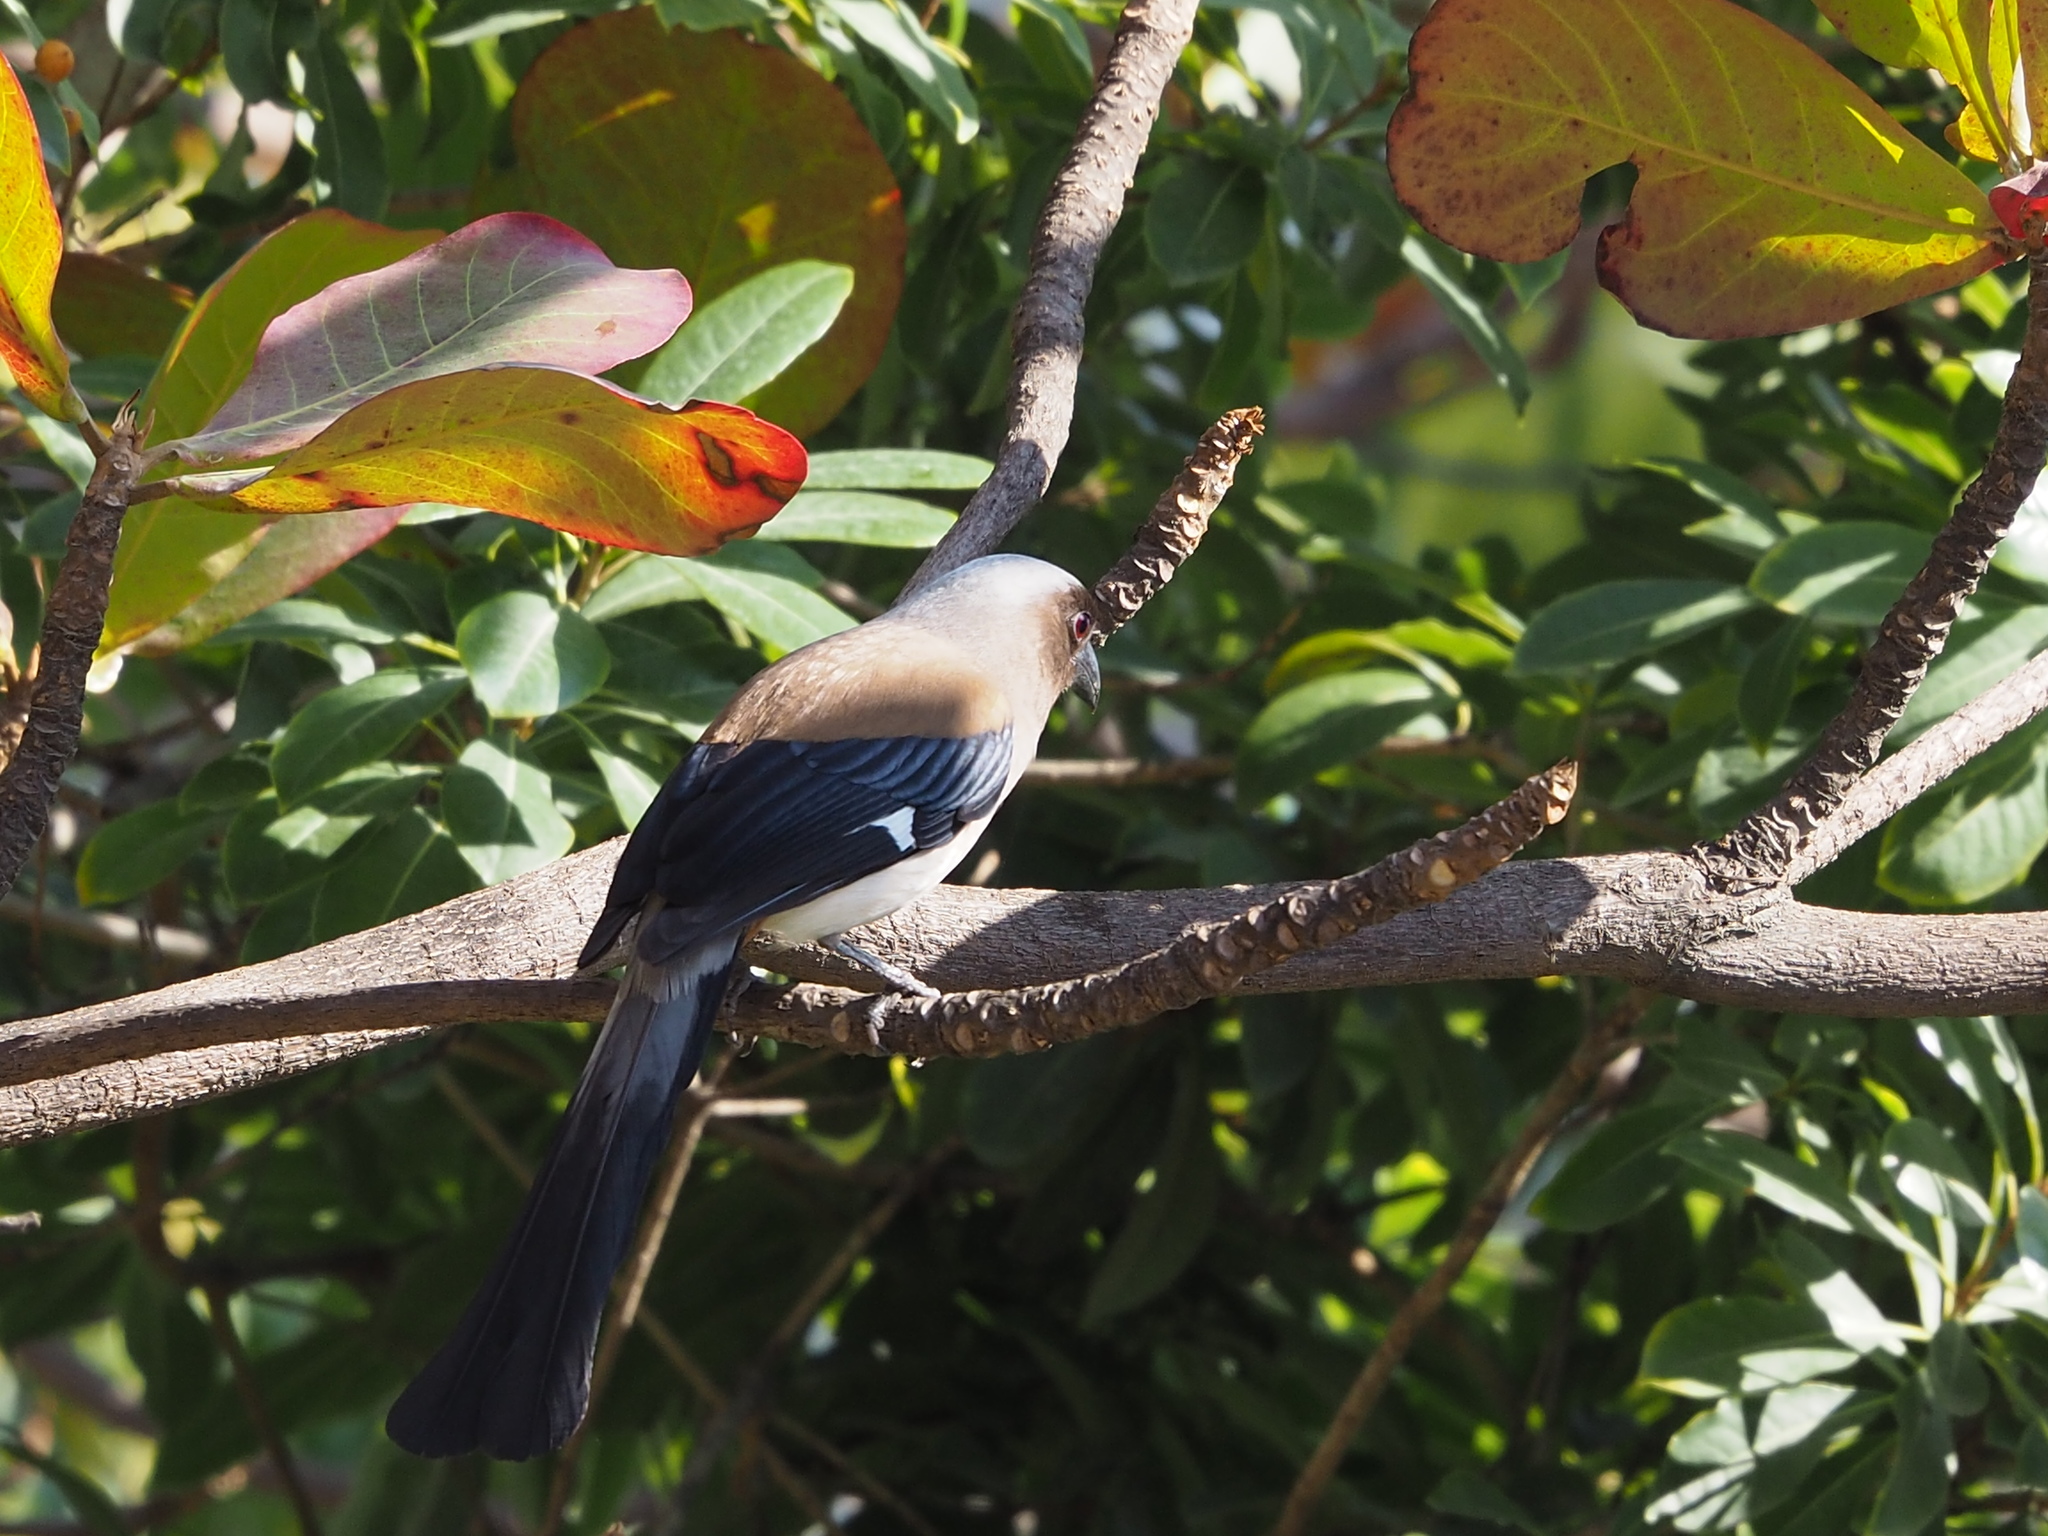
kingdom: Animalia
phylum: Chordata
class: Aves
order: Passeriformes
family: Corvidae
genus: Dendrocitta
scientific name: Dendrocitta formosae
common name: Grey treepie
